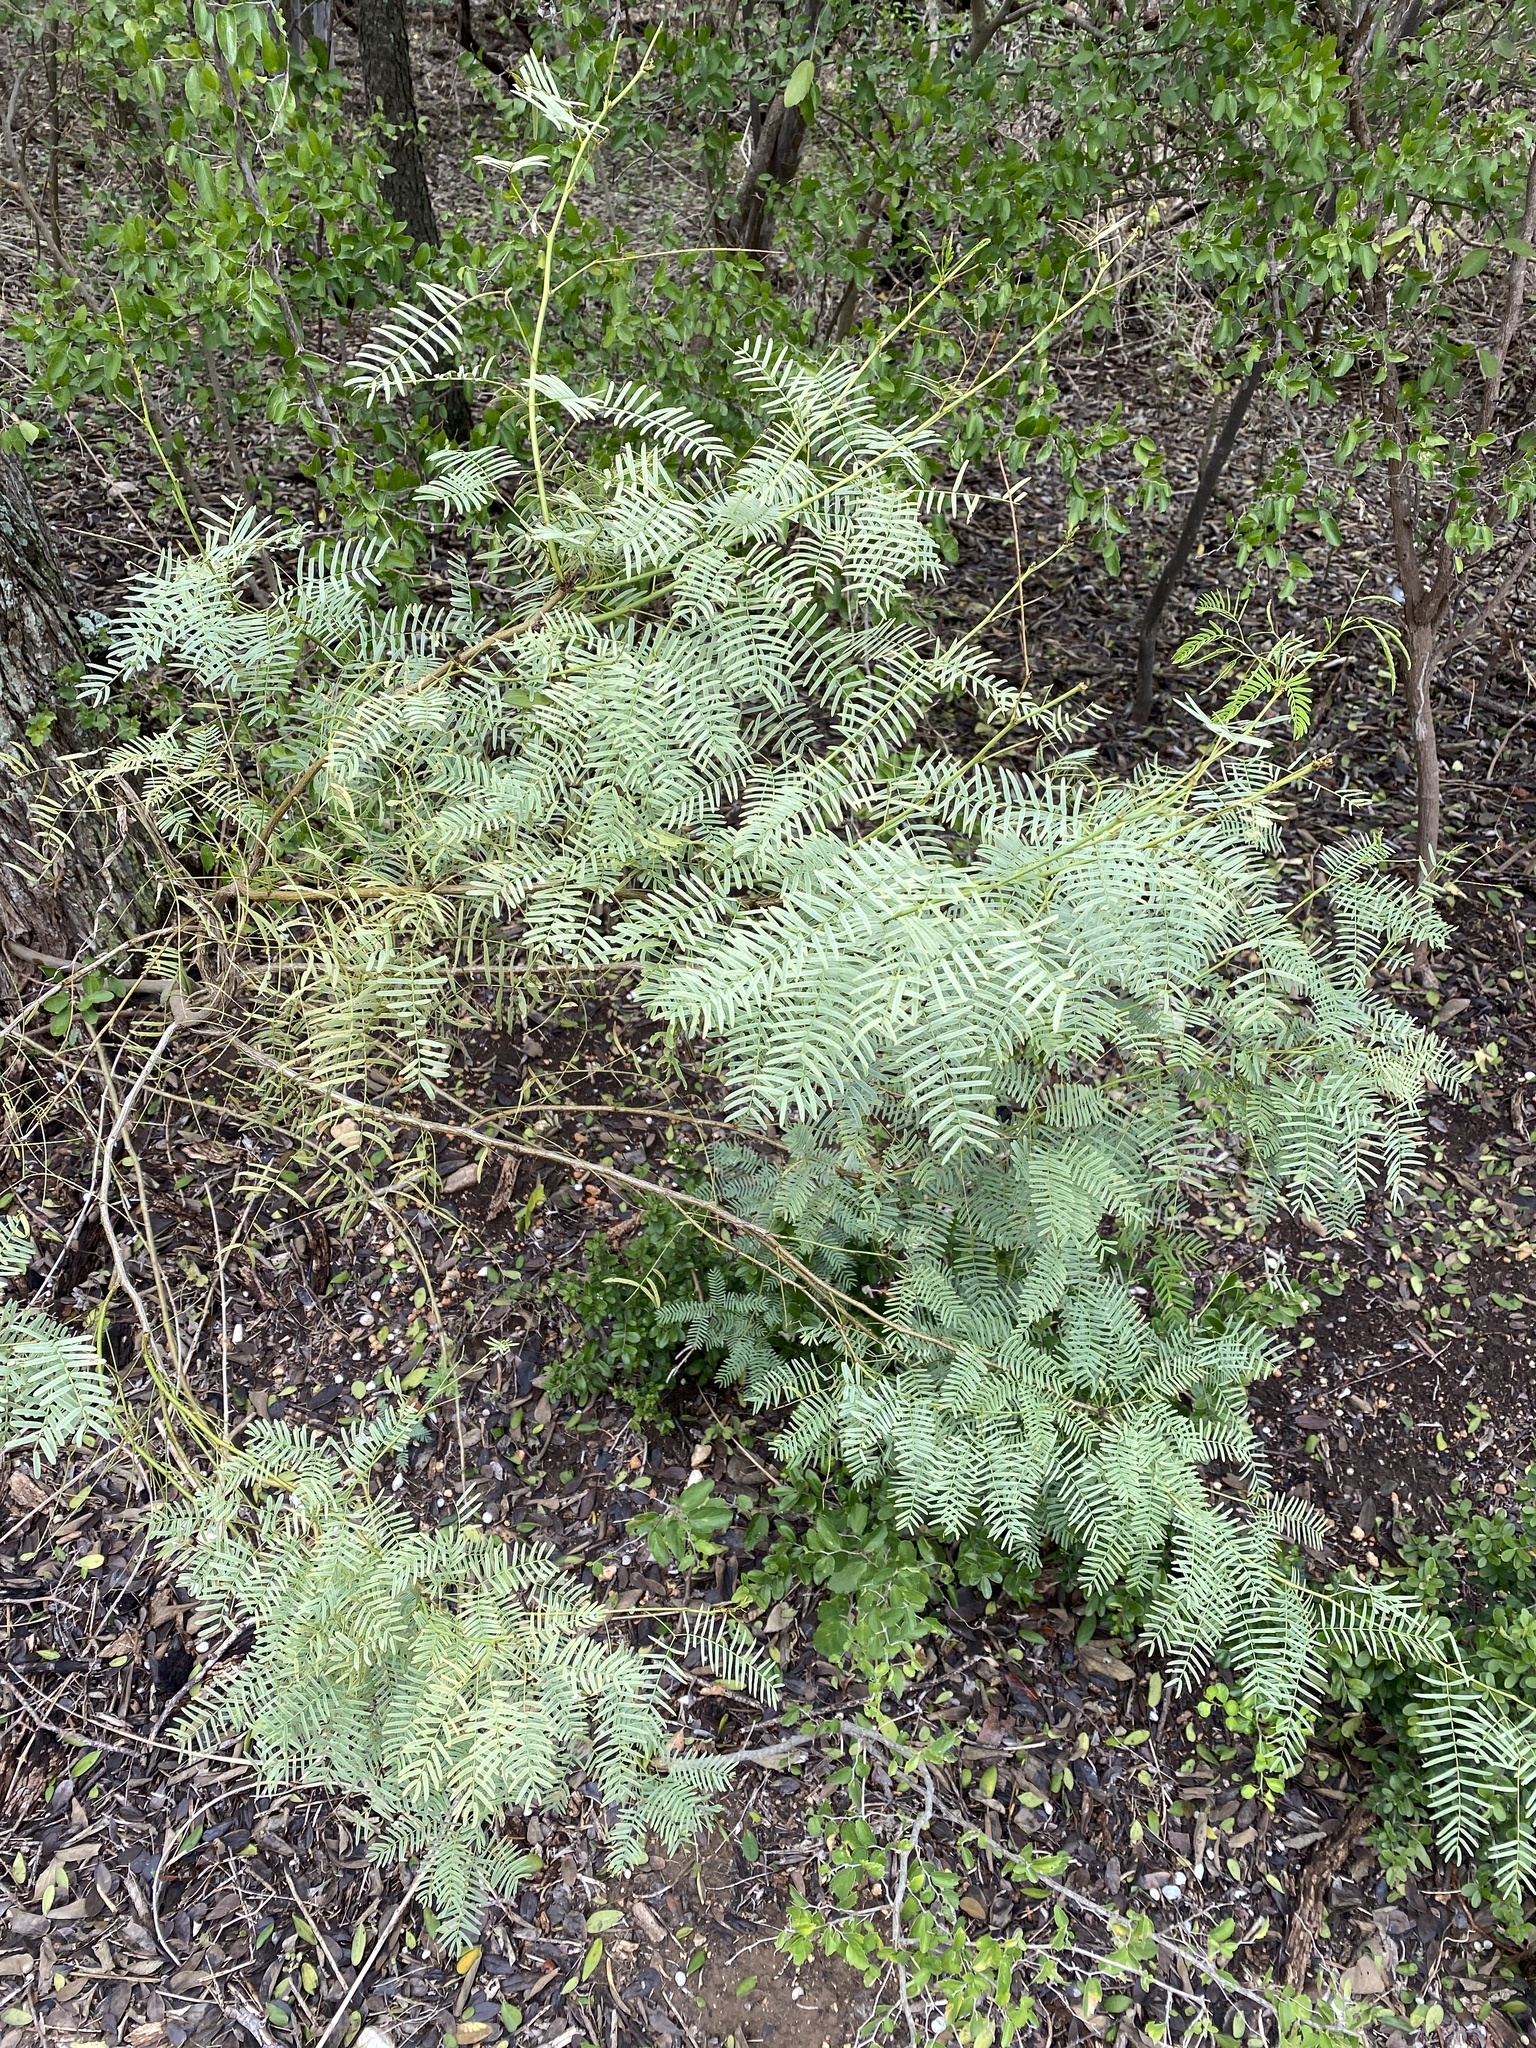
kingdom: Plantae
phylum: Tracheophyta
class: Magnoliopsida
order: Fabales
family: Fabaceae
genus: Prosopis
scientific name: Prosopis glandulosa
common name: Honey mesquite
